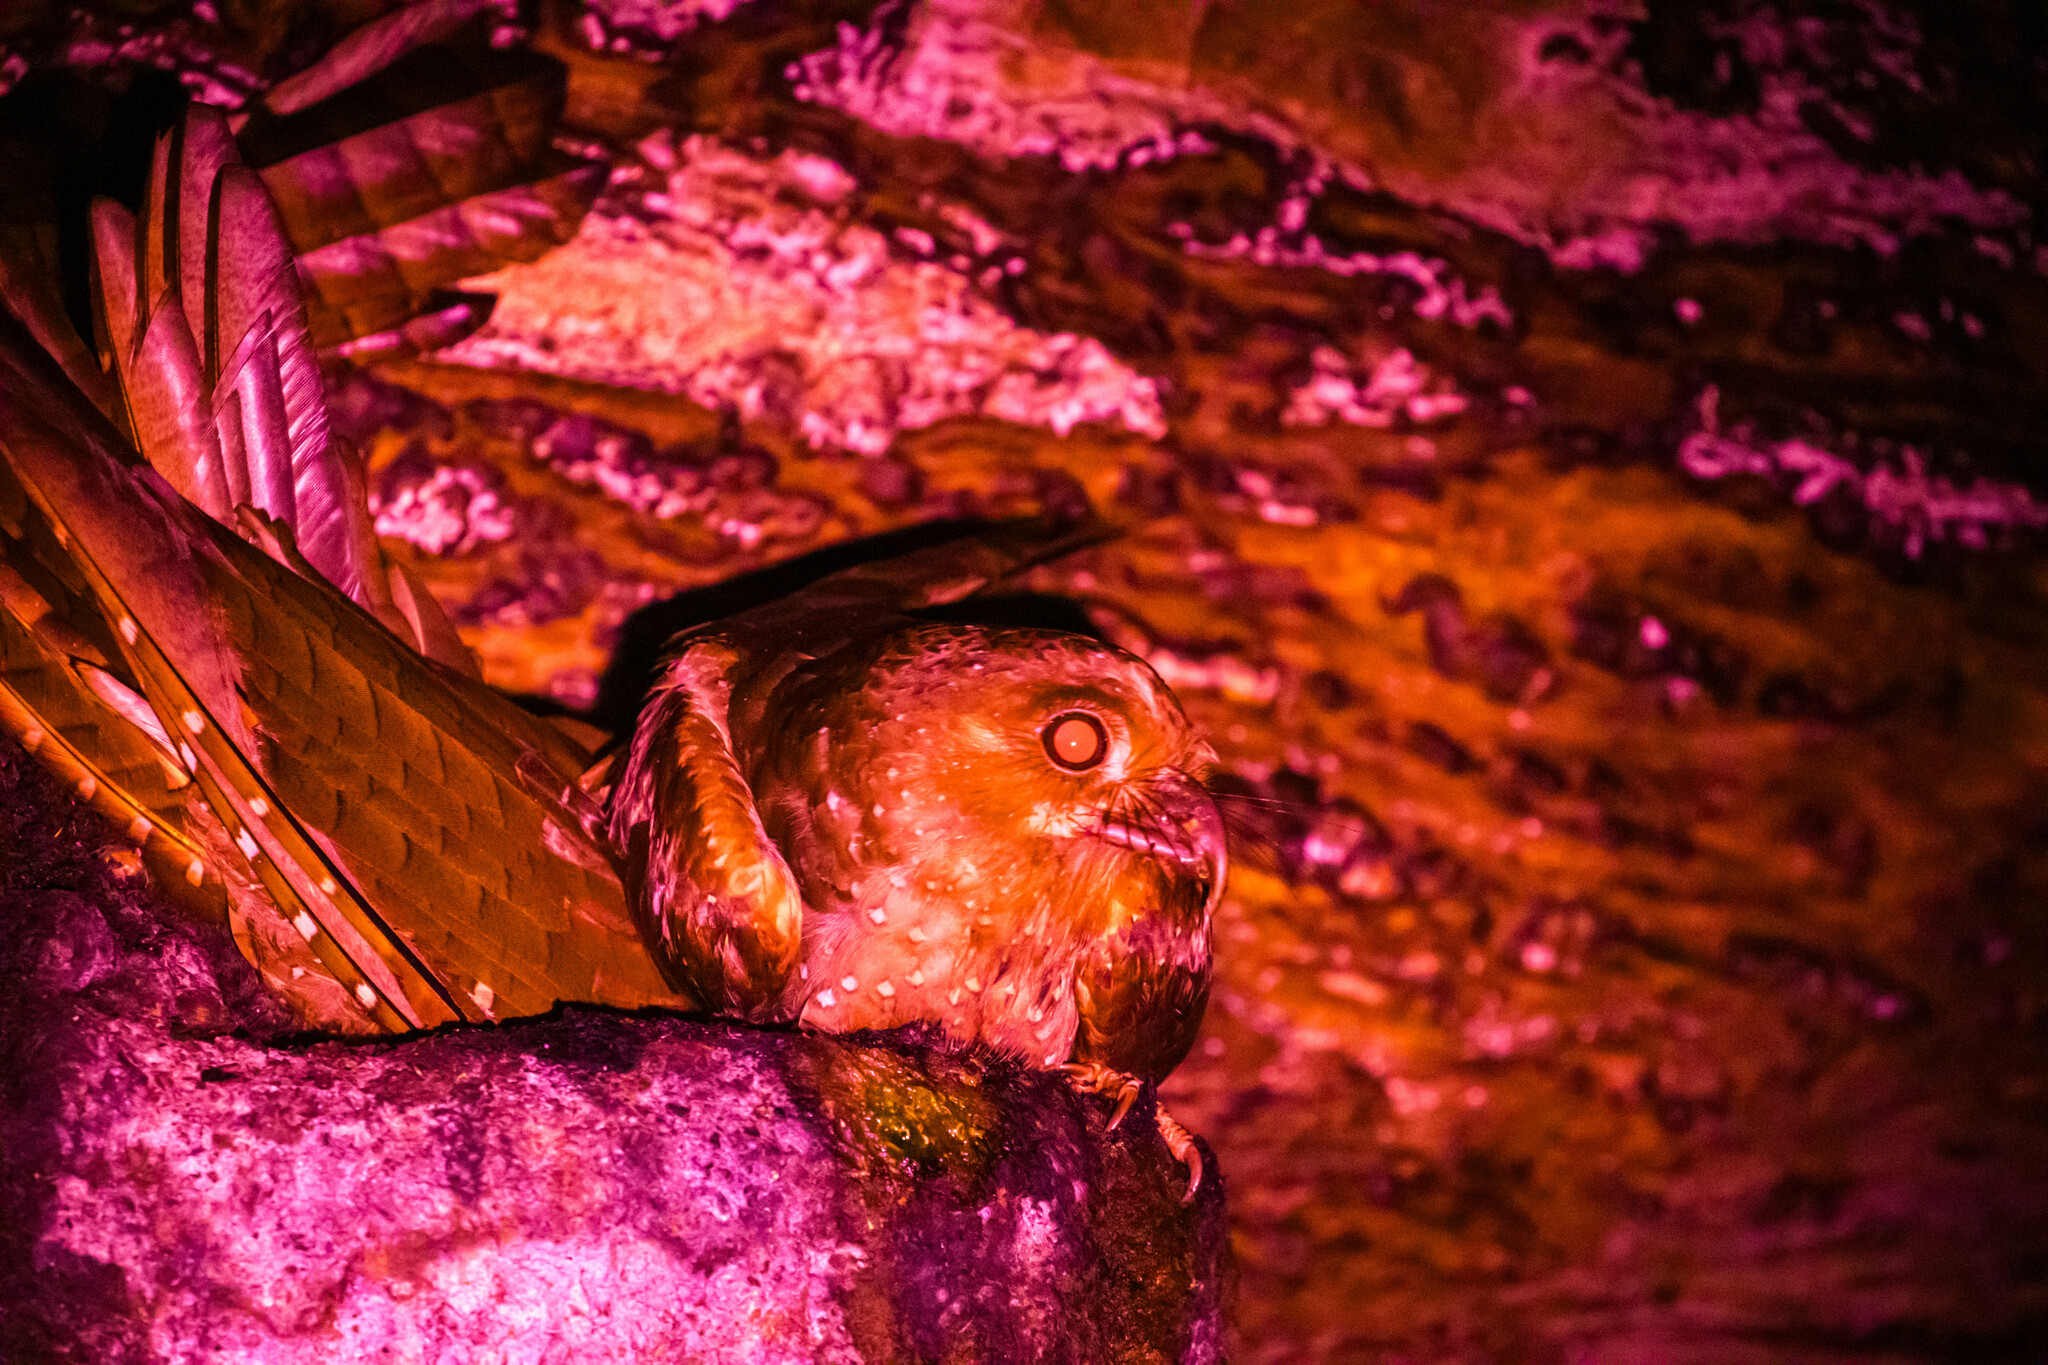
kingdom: Animalia
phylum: Chordata
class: Aves
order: Steatornithiformes
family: Steatornithidae
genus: Steatornis
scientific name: Steatornis caripensis
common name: Oilbird
